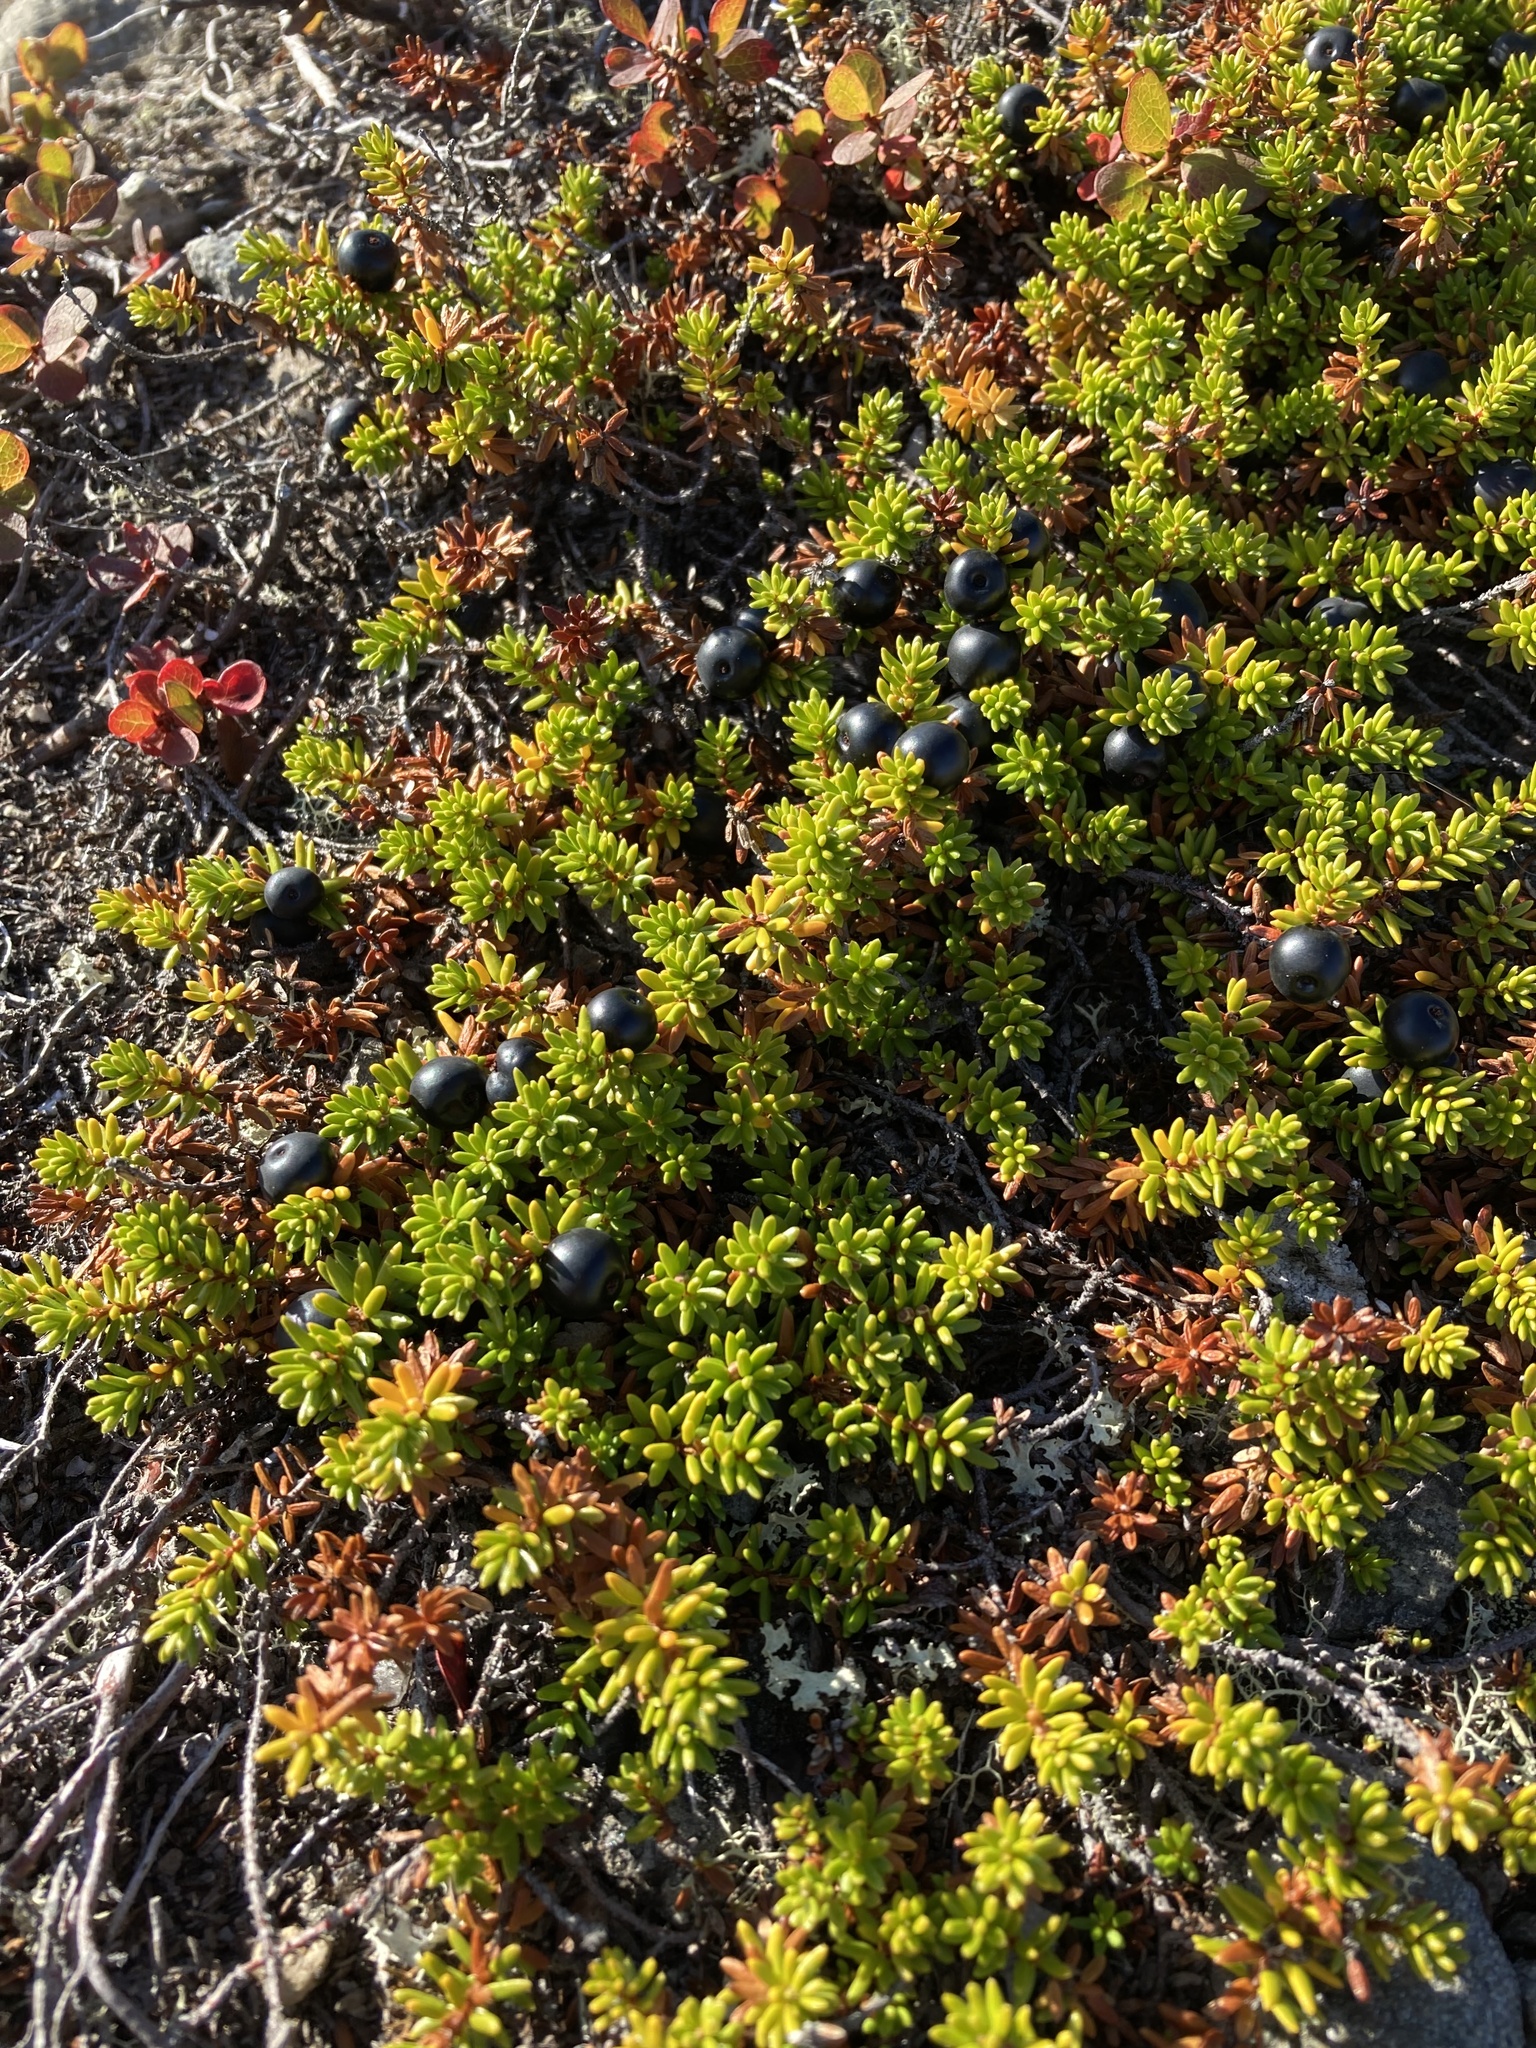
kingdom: Plantae
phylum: Tracheophyta
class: Magnoliopsida
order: Ericales
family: Ericaceae
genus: Empetrum
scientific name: Empetrum nigrum
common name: Black crowberry
